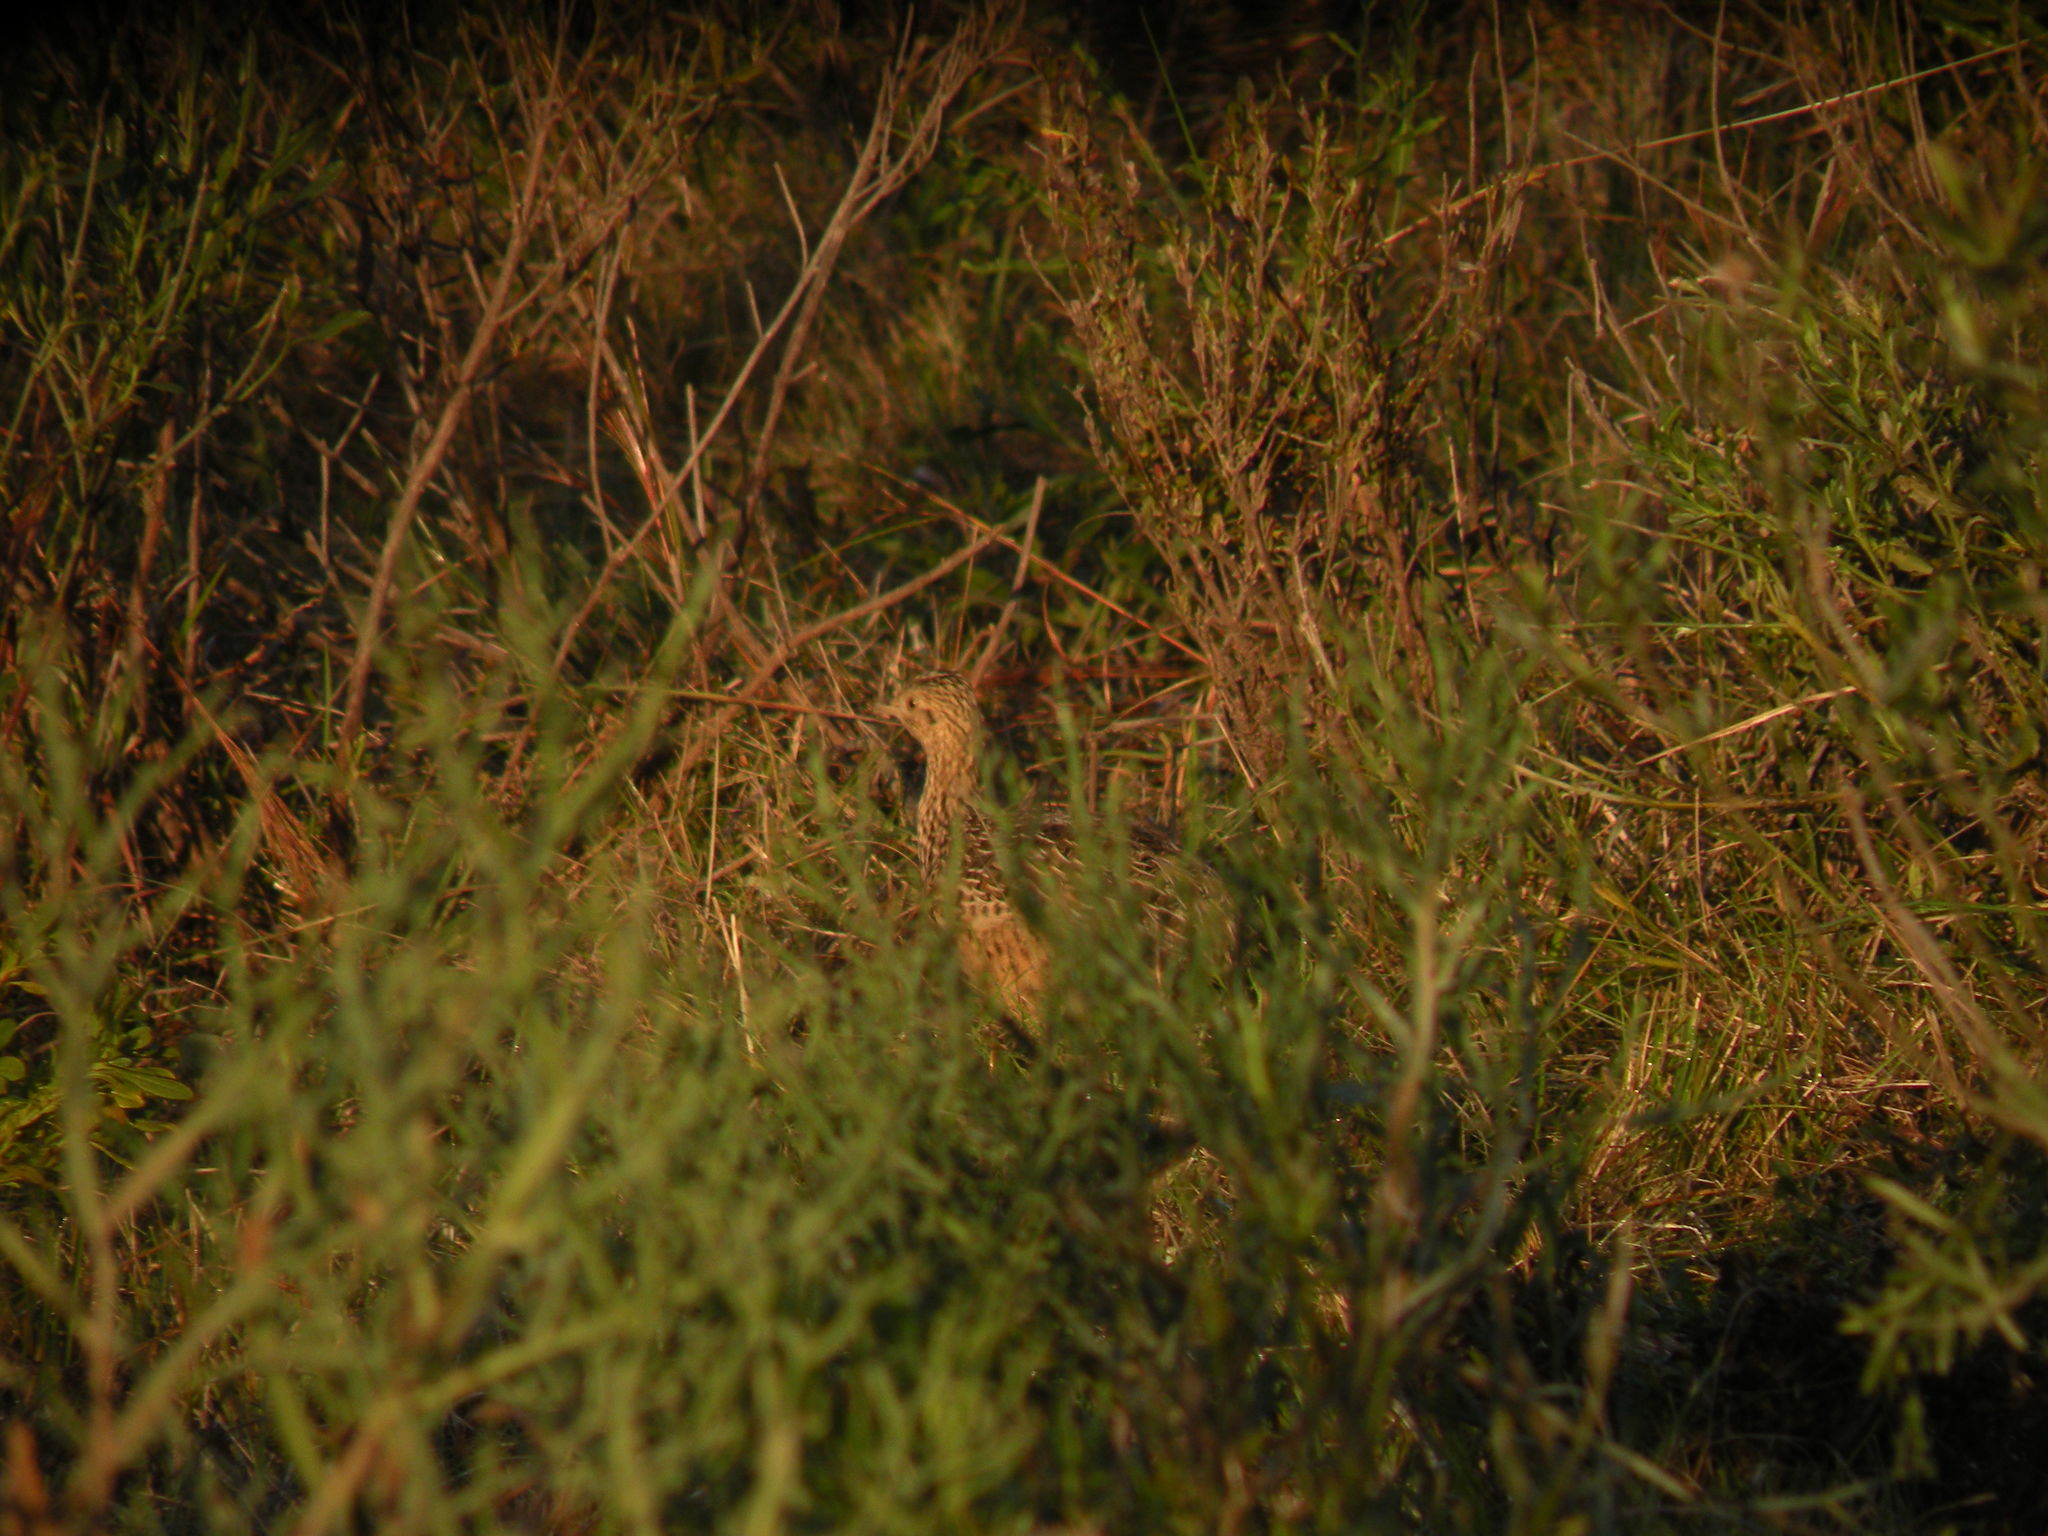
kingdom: Animalia
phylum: Chordata
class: Aves
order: Tinamiformes
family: Tinamidae
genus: Nothura
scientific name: Nothura maculosa
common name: Spotted nothura
